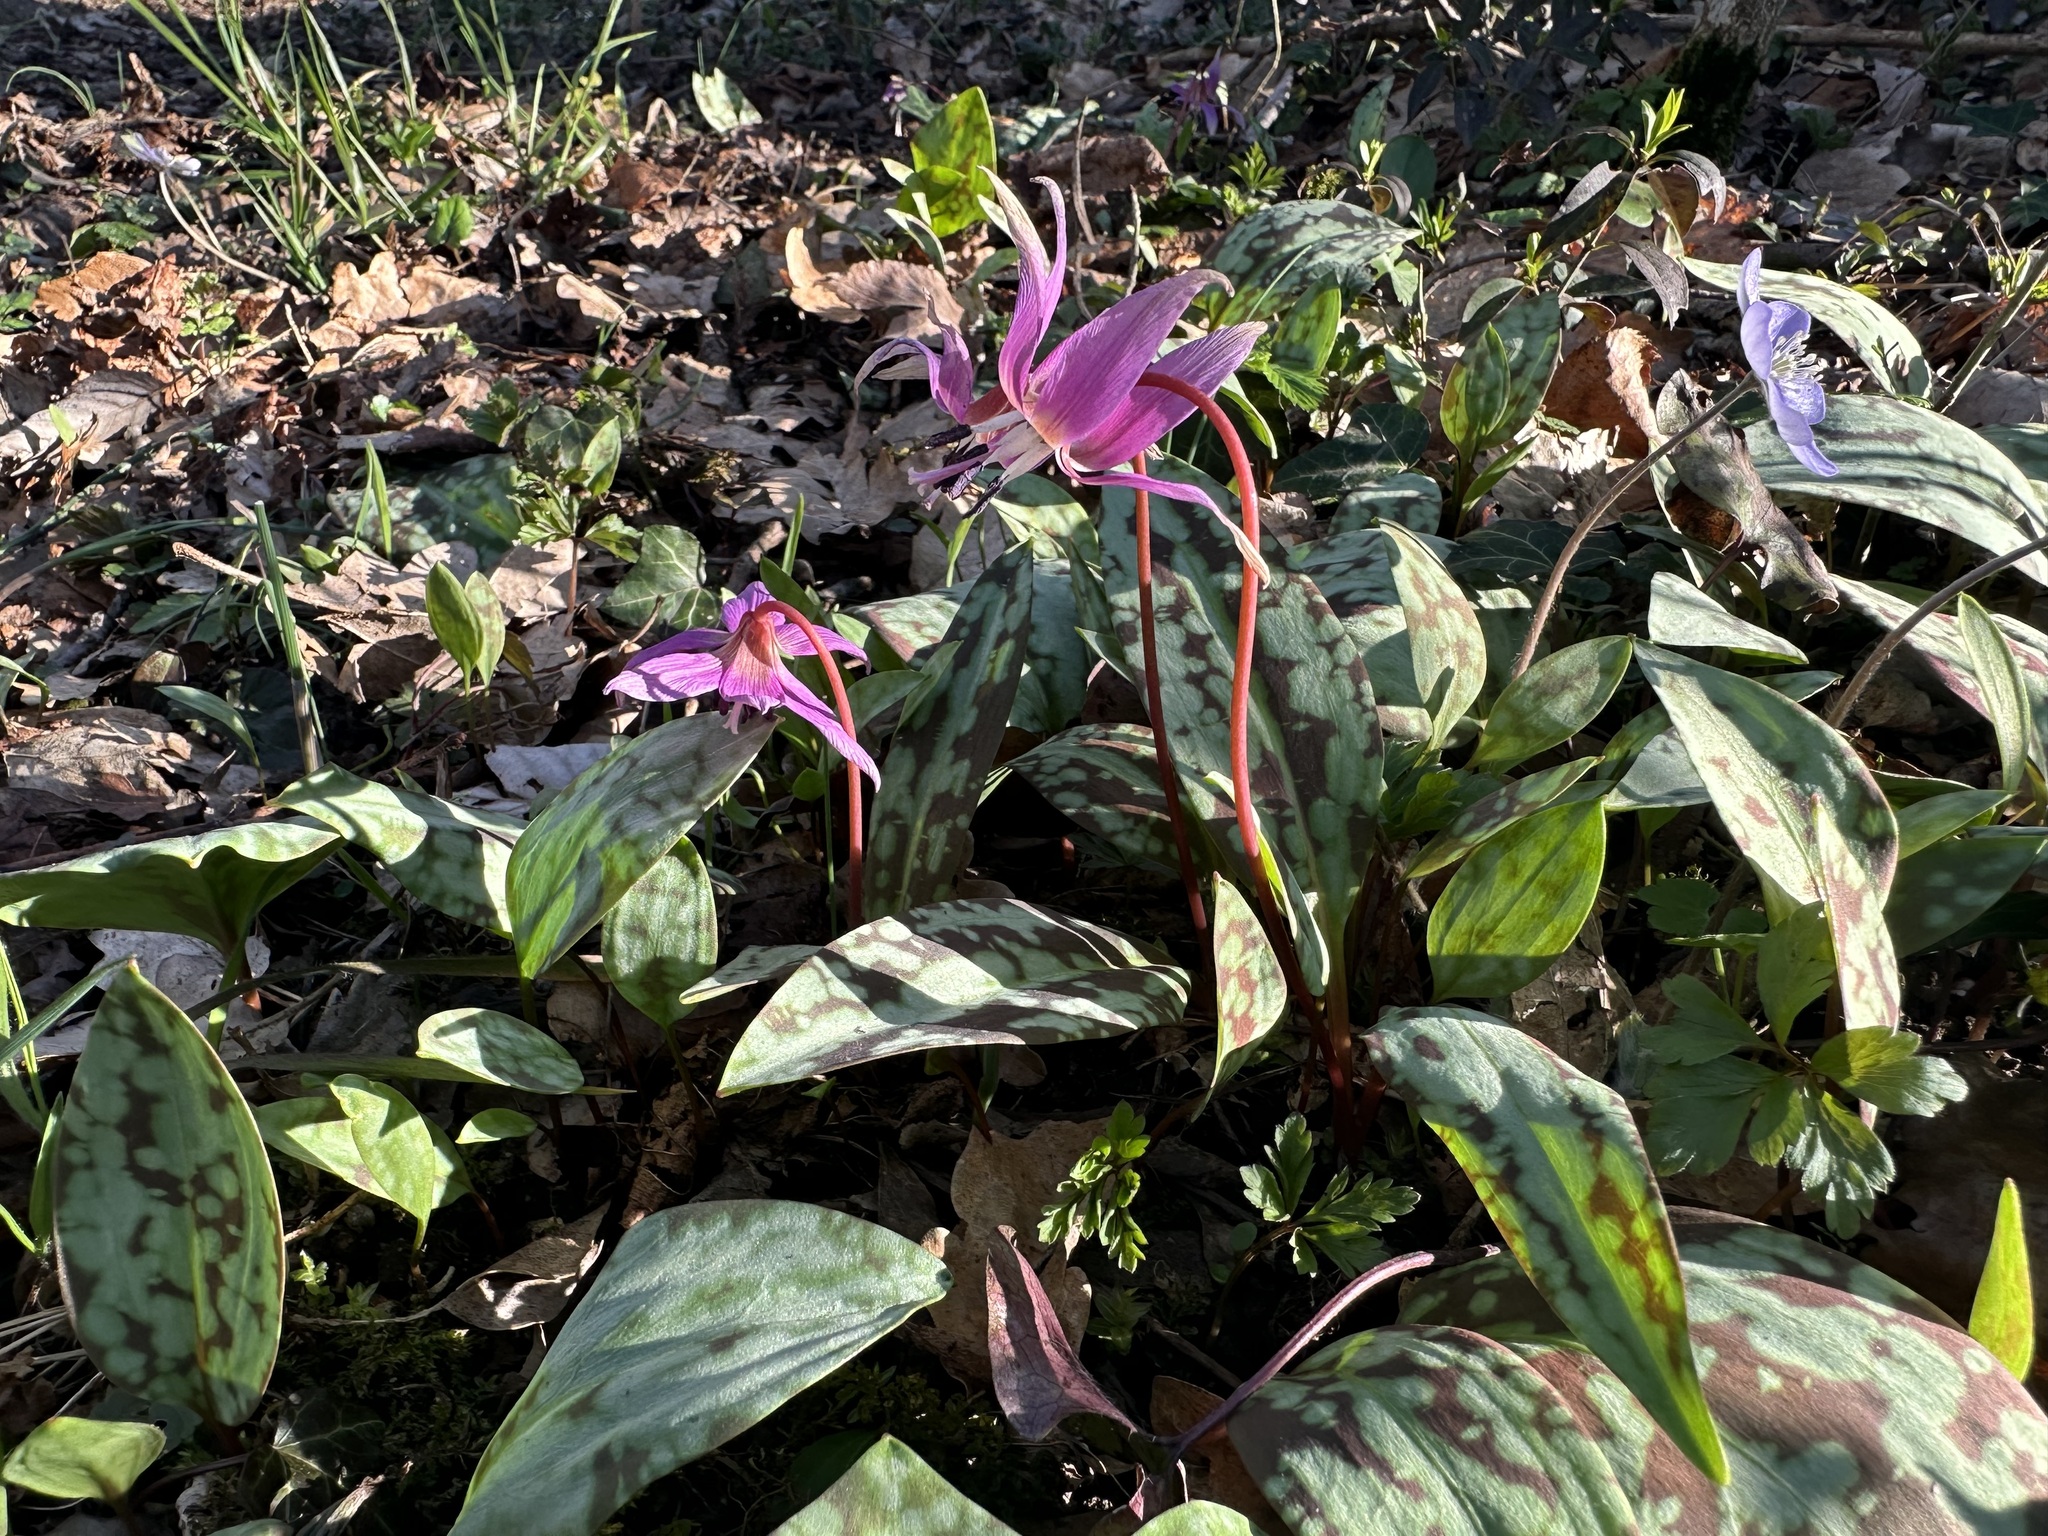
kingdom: Plantae
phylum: Tracheophyta
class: Liliopsida
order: Liliales
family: Liliaceae
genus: Erythronium
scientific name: Erythronium dens-canis
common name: Dog's-tooth-violet
